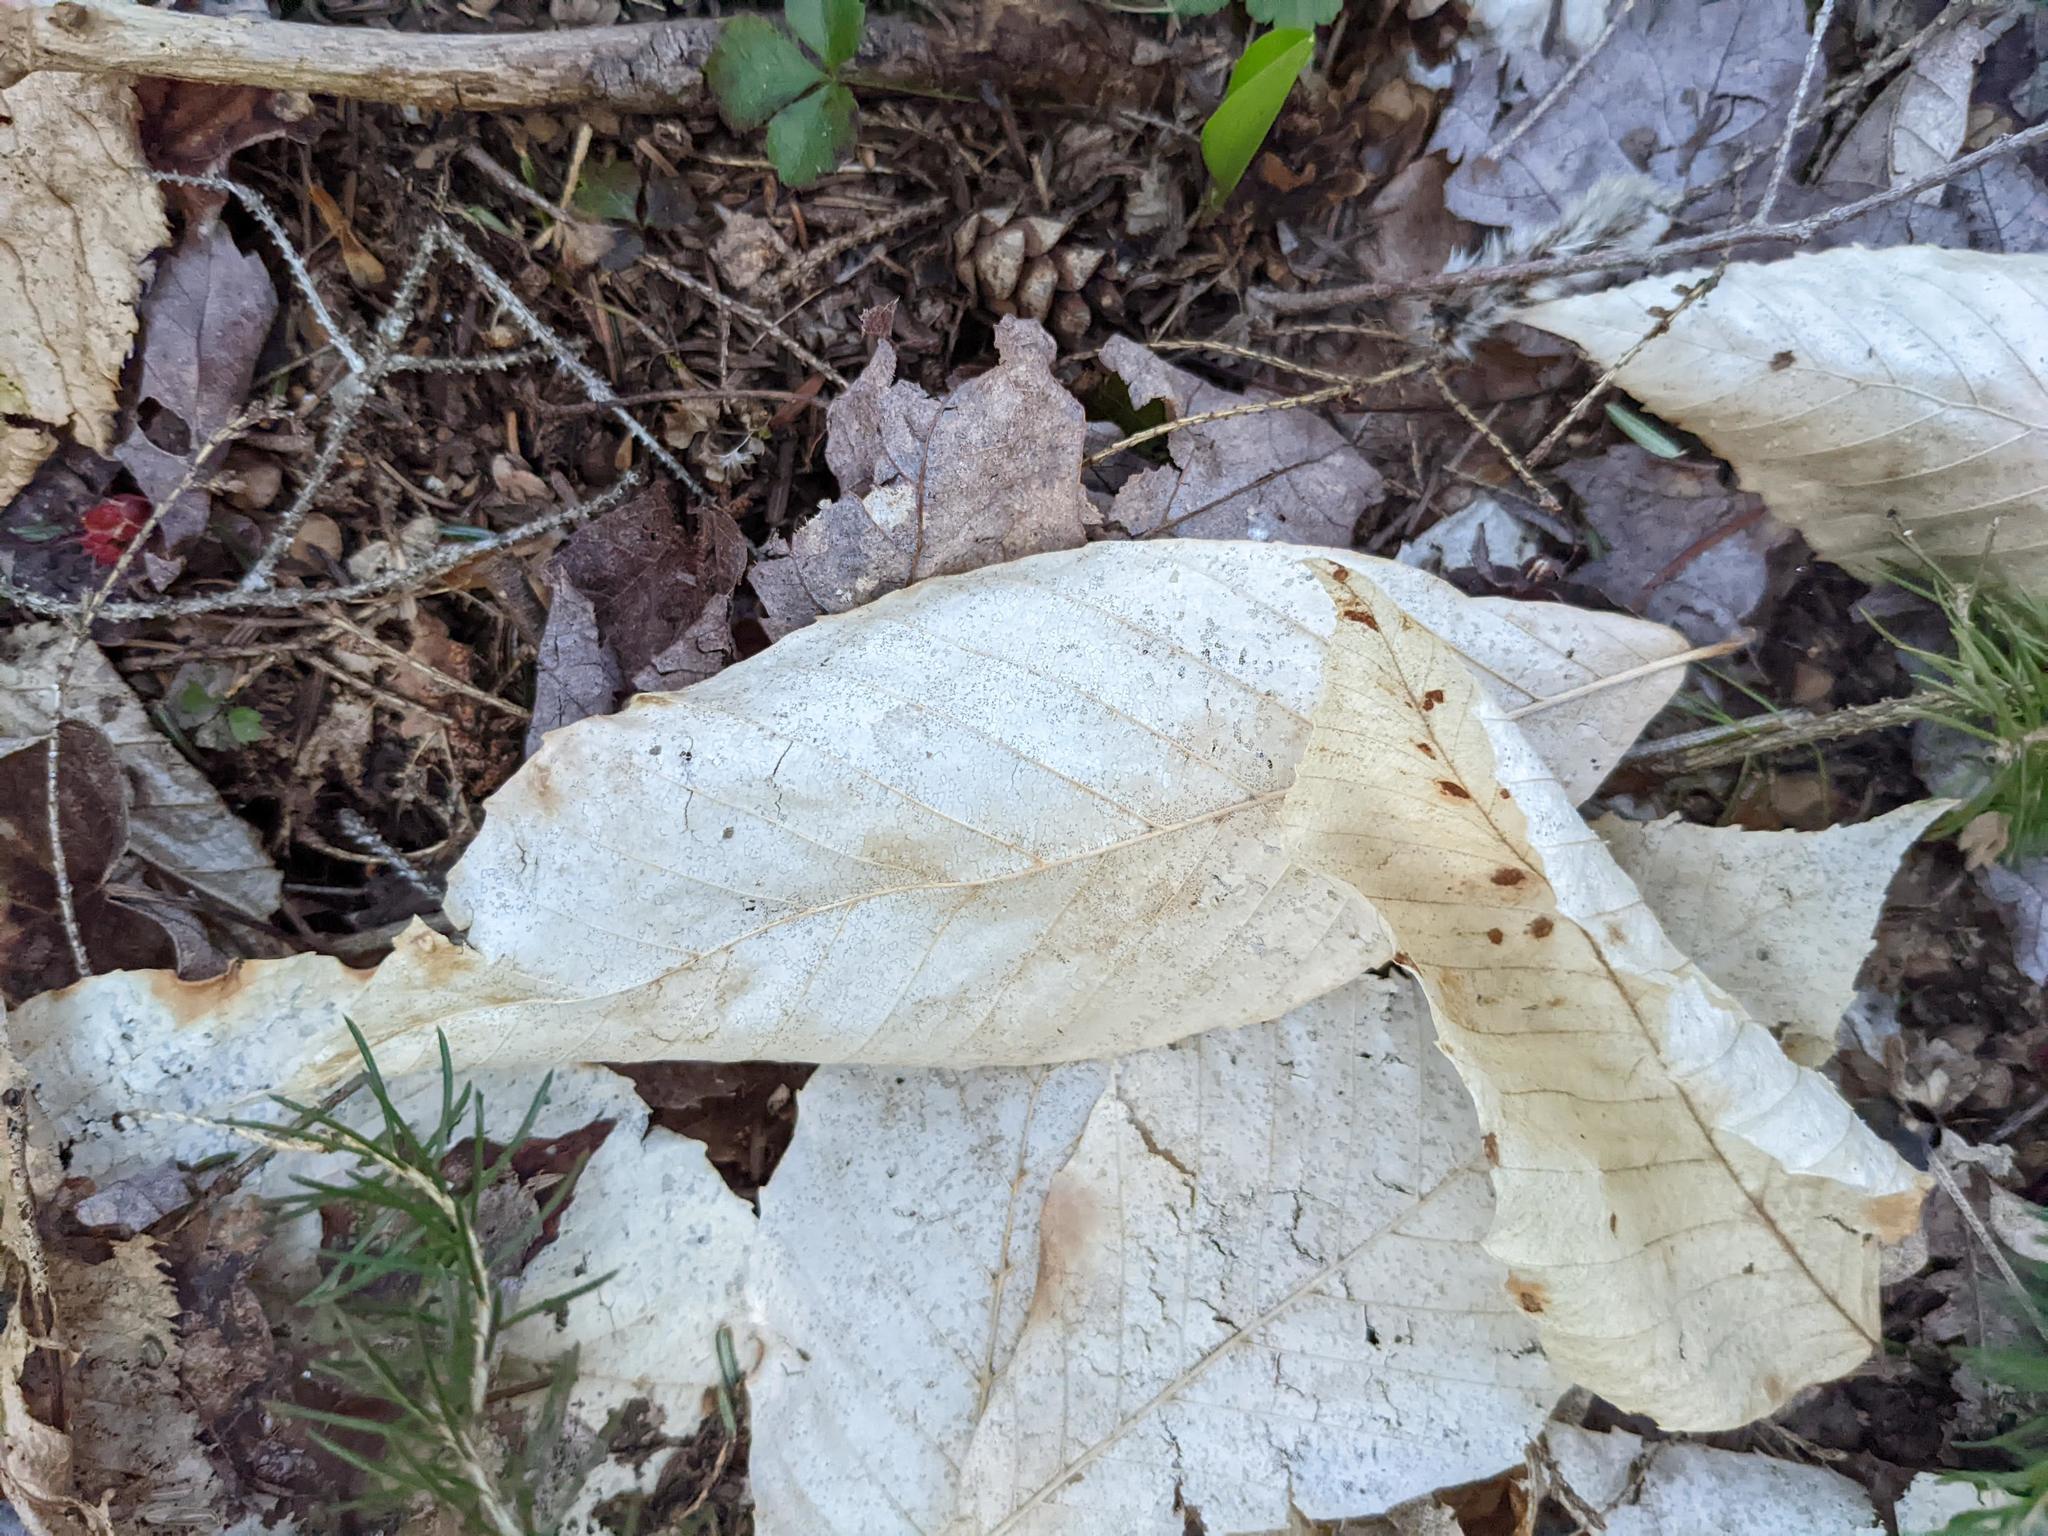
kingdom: Plantae
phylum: Tracheophyta
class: Magnoliopsida
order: Fagales
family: Fagaceae
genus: Fagus
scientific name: Fagus grandifolia
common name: American beech
